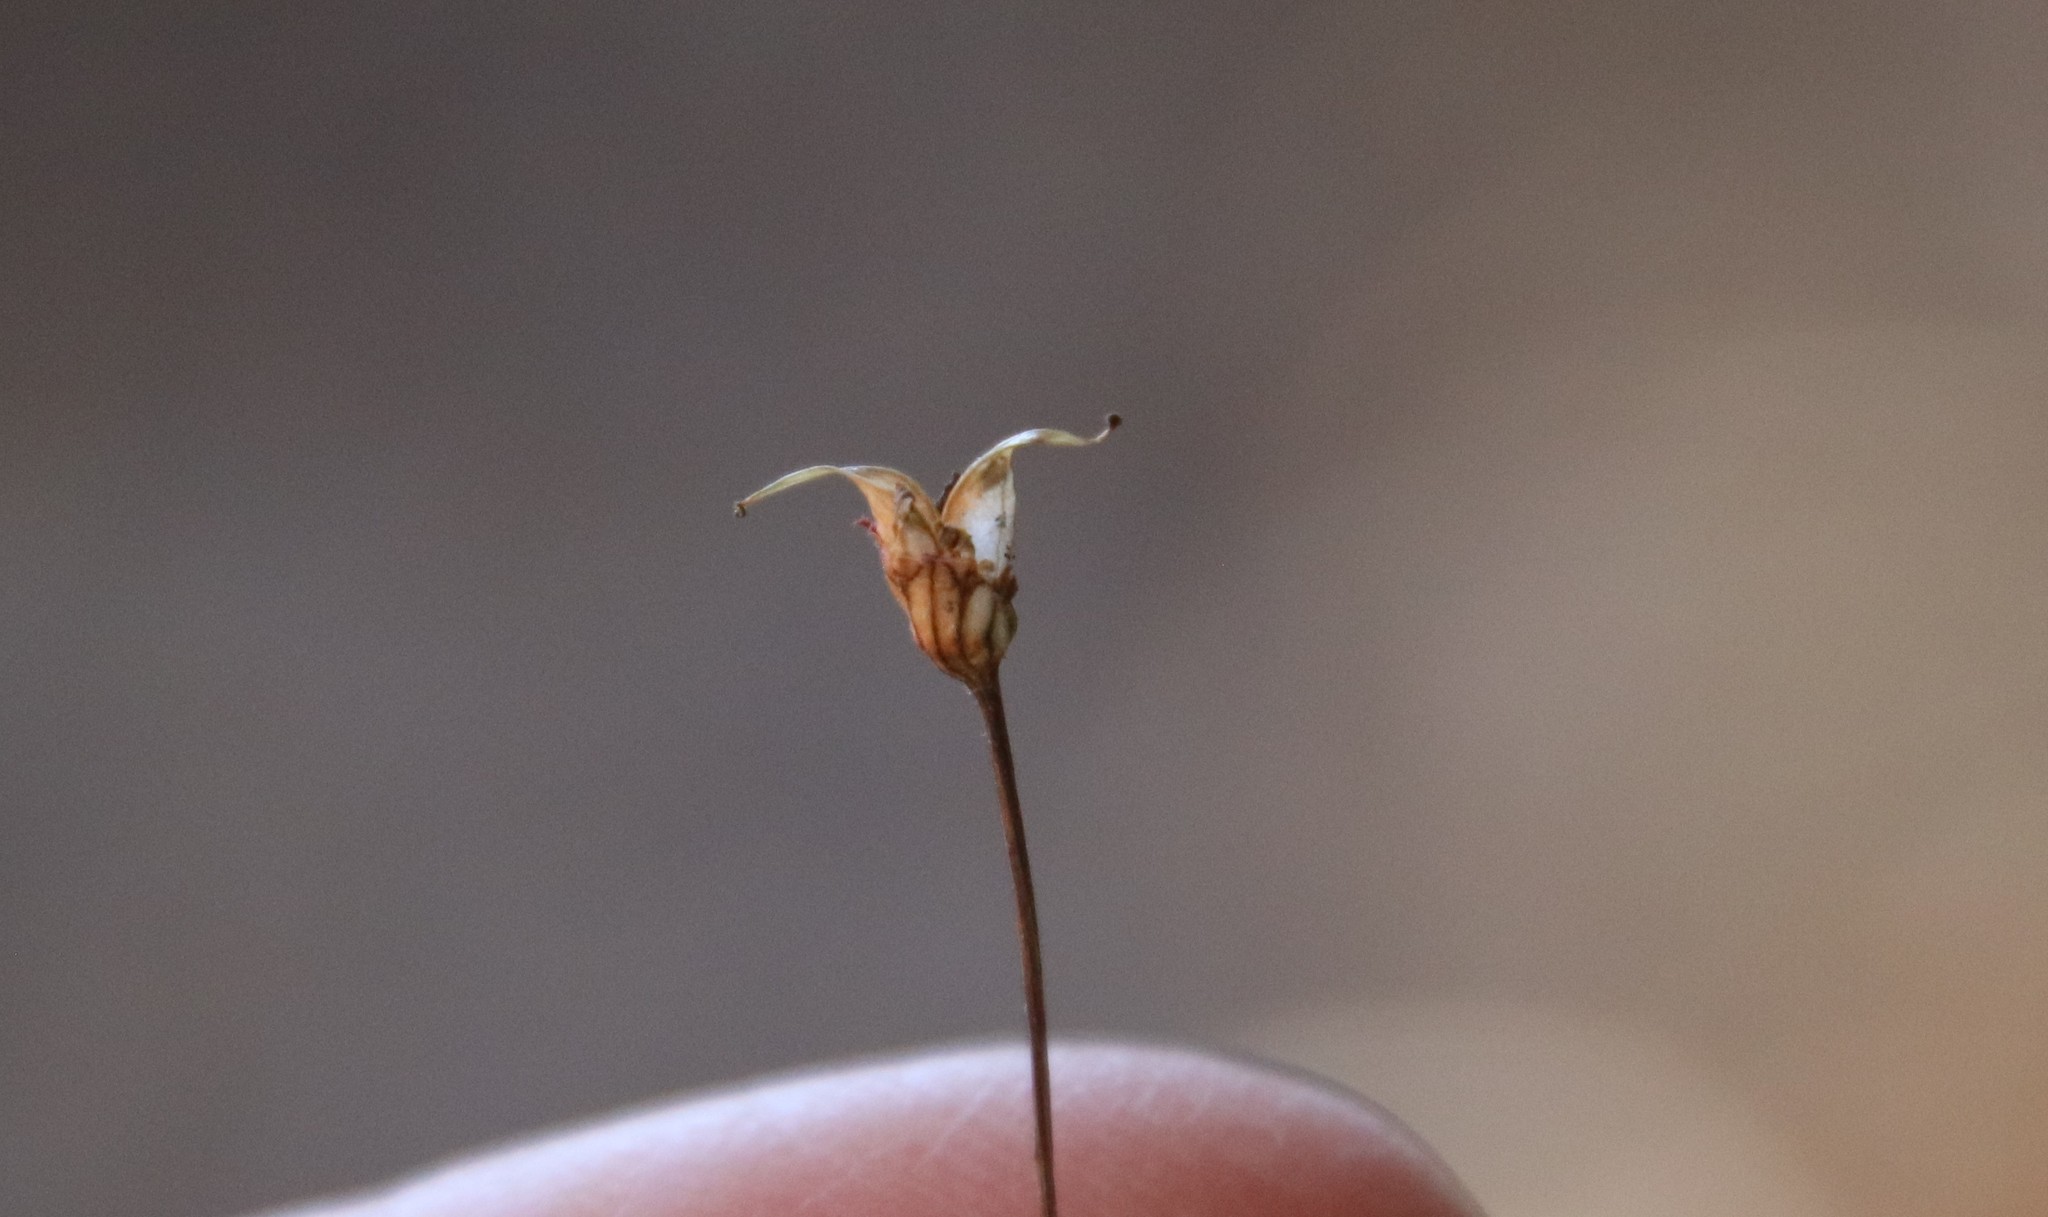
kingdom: Plantae
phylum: Tracheophyta
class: Magnoliopsida
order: Saxifragales
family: Saxifragaceae
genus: Jepsonia
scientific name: Jepsonia parryi
